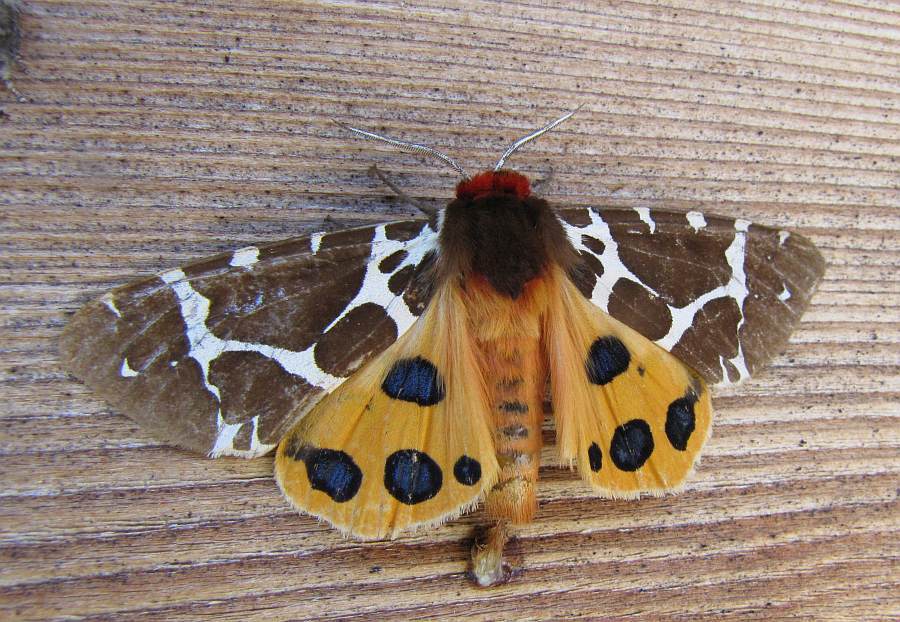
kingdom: Animalia
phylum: Arthropoda
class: Insecta
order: Lepidoptera
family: Erebidae
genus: Arctia
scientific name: Arctia caja
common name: Garden tiger
